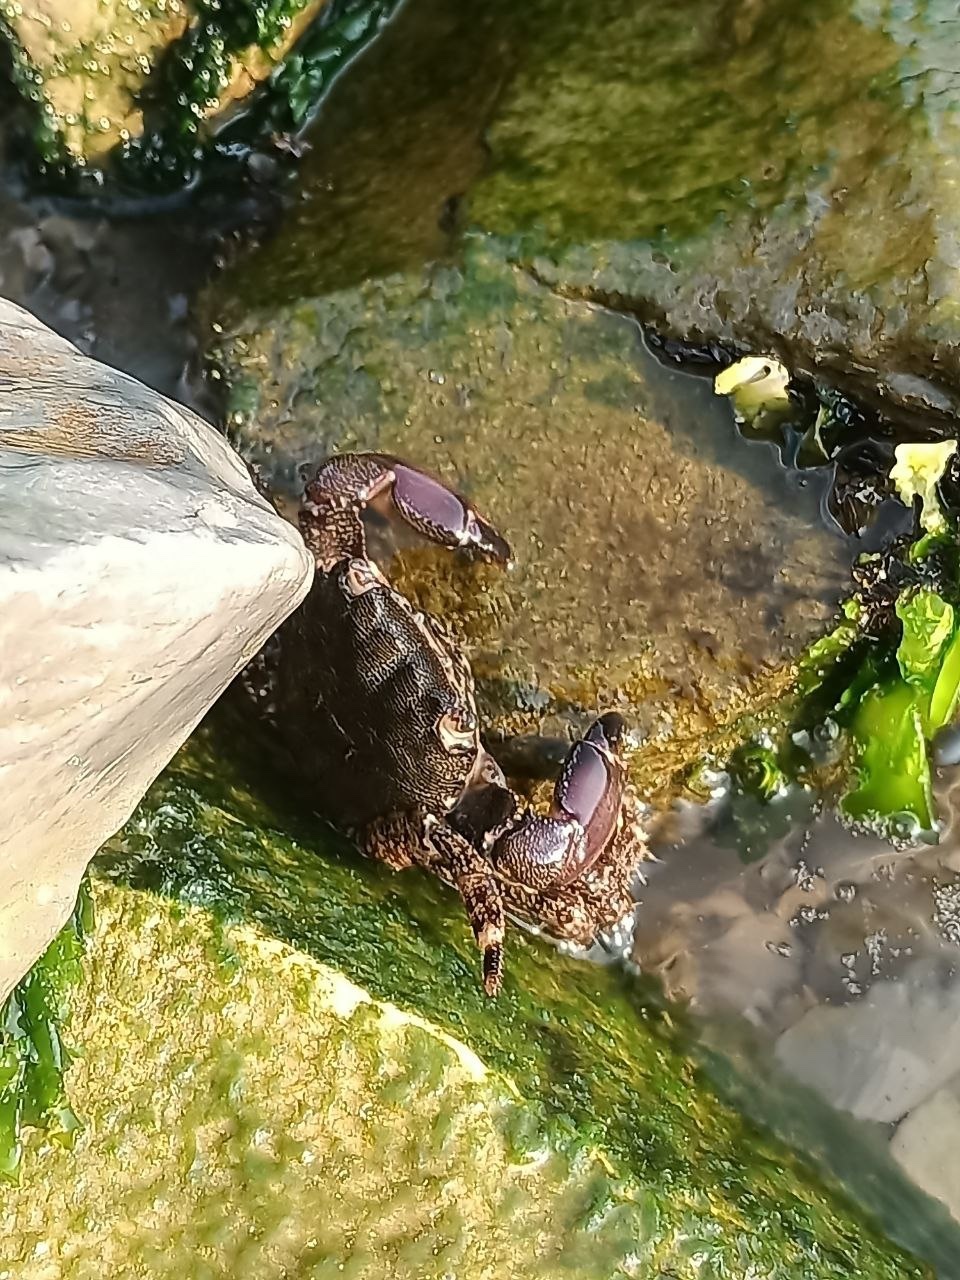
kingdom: Animalia
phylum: Arthropoda
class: Malacostraca
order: Decapoda
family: Grapsidae
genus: Pachygrapsus
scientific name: Pachygrapsus marmoratus
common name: Marbled rock crab
